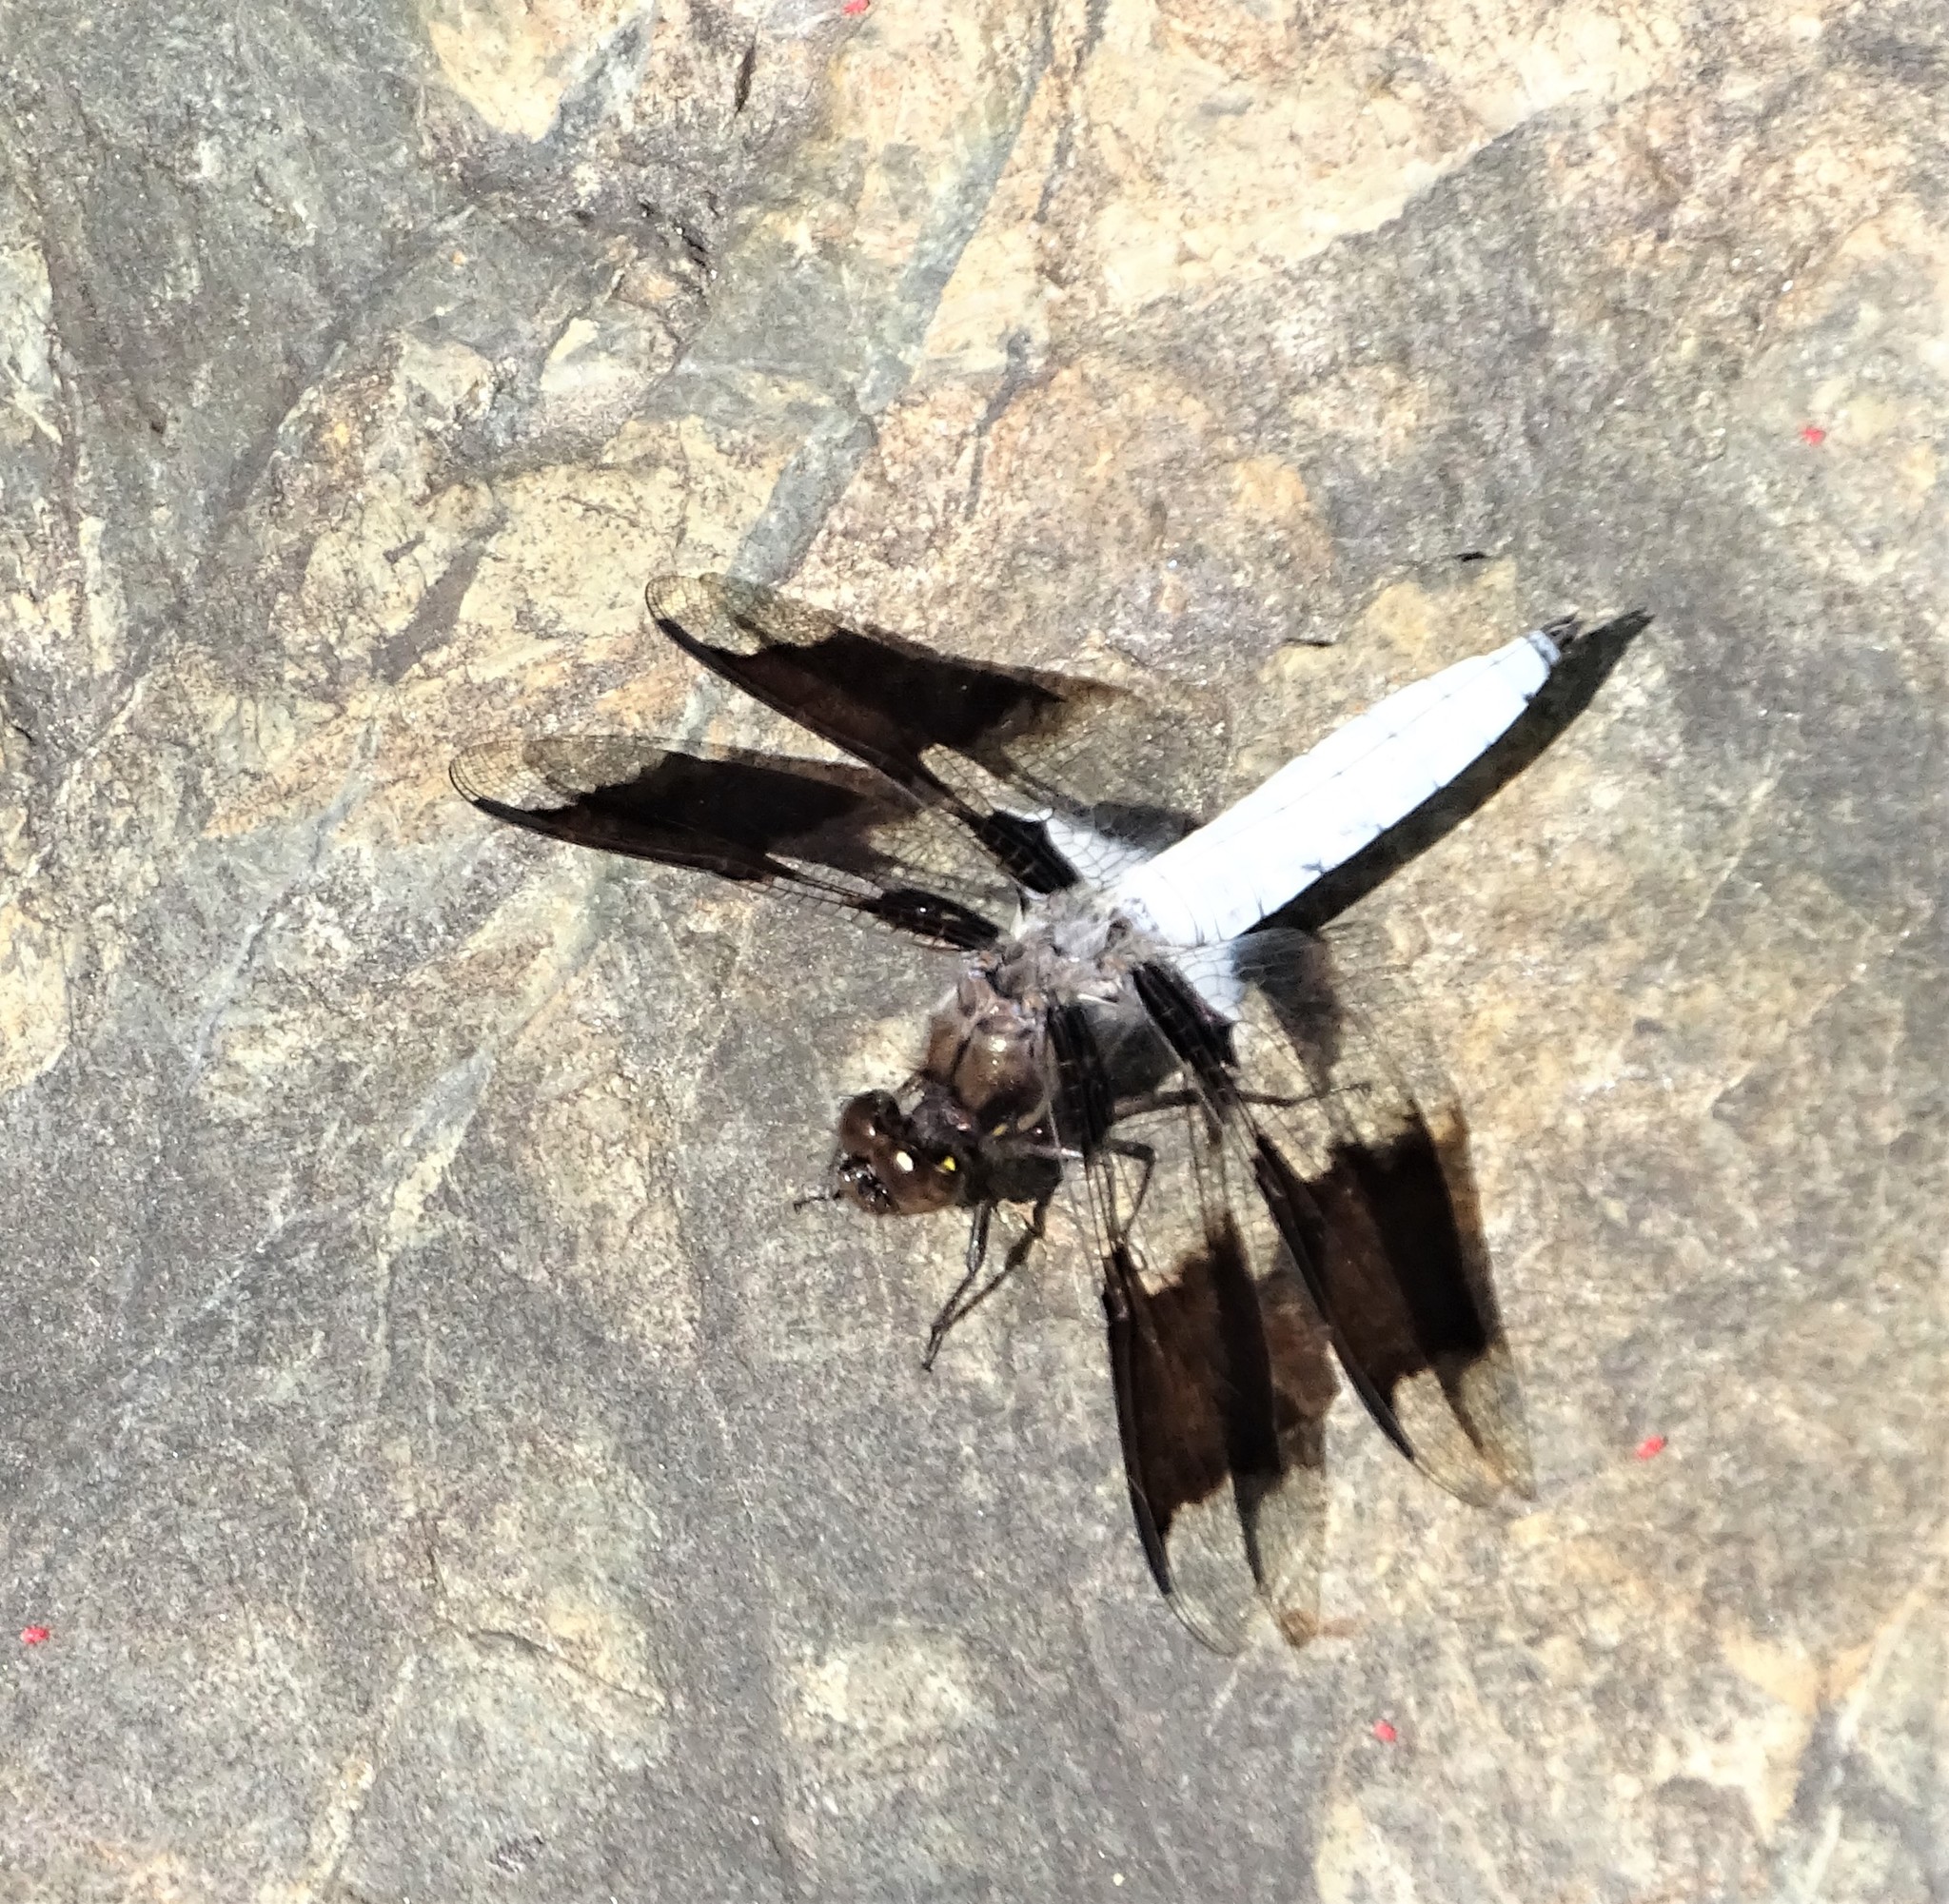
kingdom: Animalia
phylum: Arthropoda
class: Insecta
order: Odonata
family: Libellulidae
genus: Plathemis
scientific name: Plathemis lydia
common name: Common whitetail
